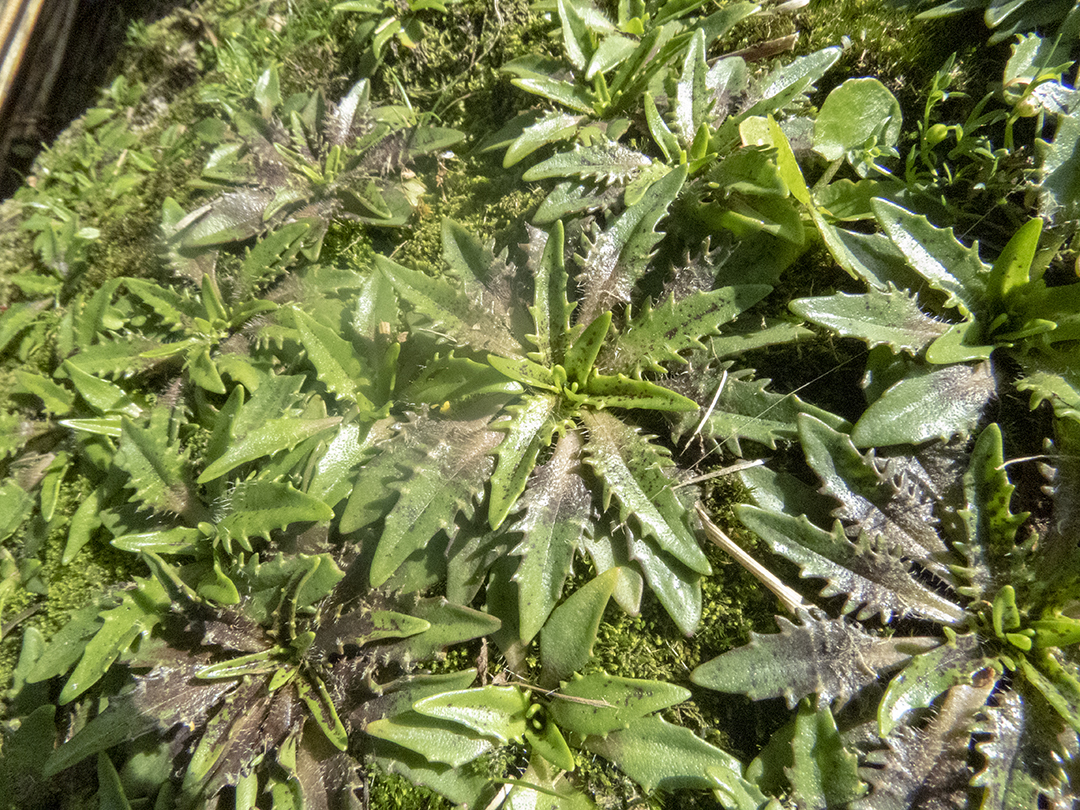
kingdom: Plantae
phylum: Tracheophyta
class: Magnoliopsida
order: Lamiales
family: Plantaginaceae
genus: Plantago
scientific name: Plantago triandra
